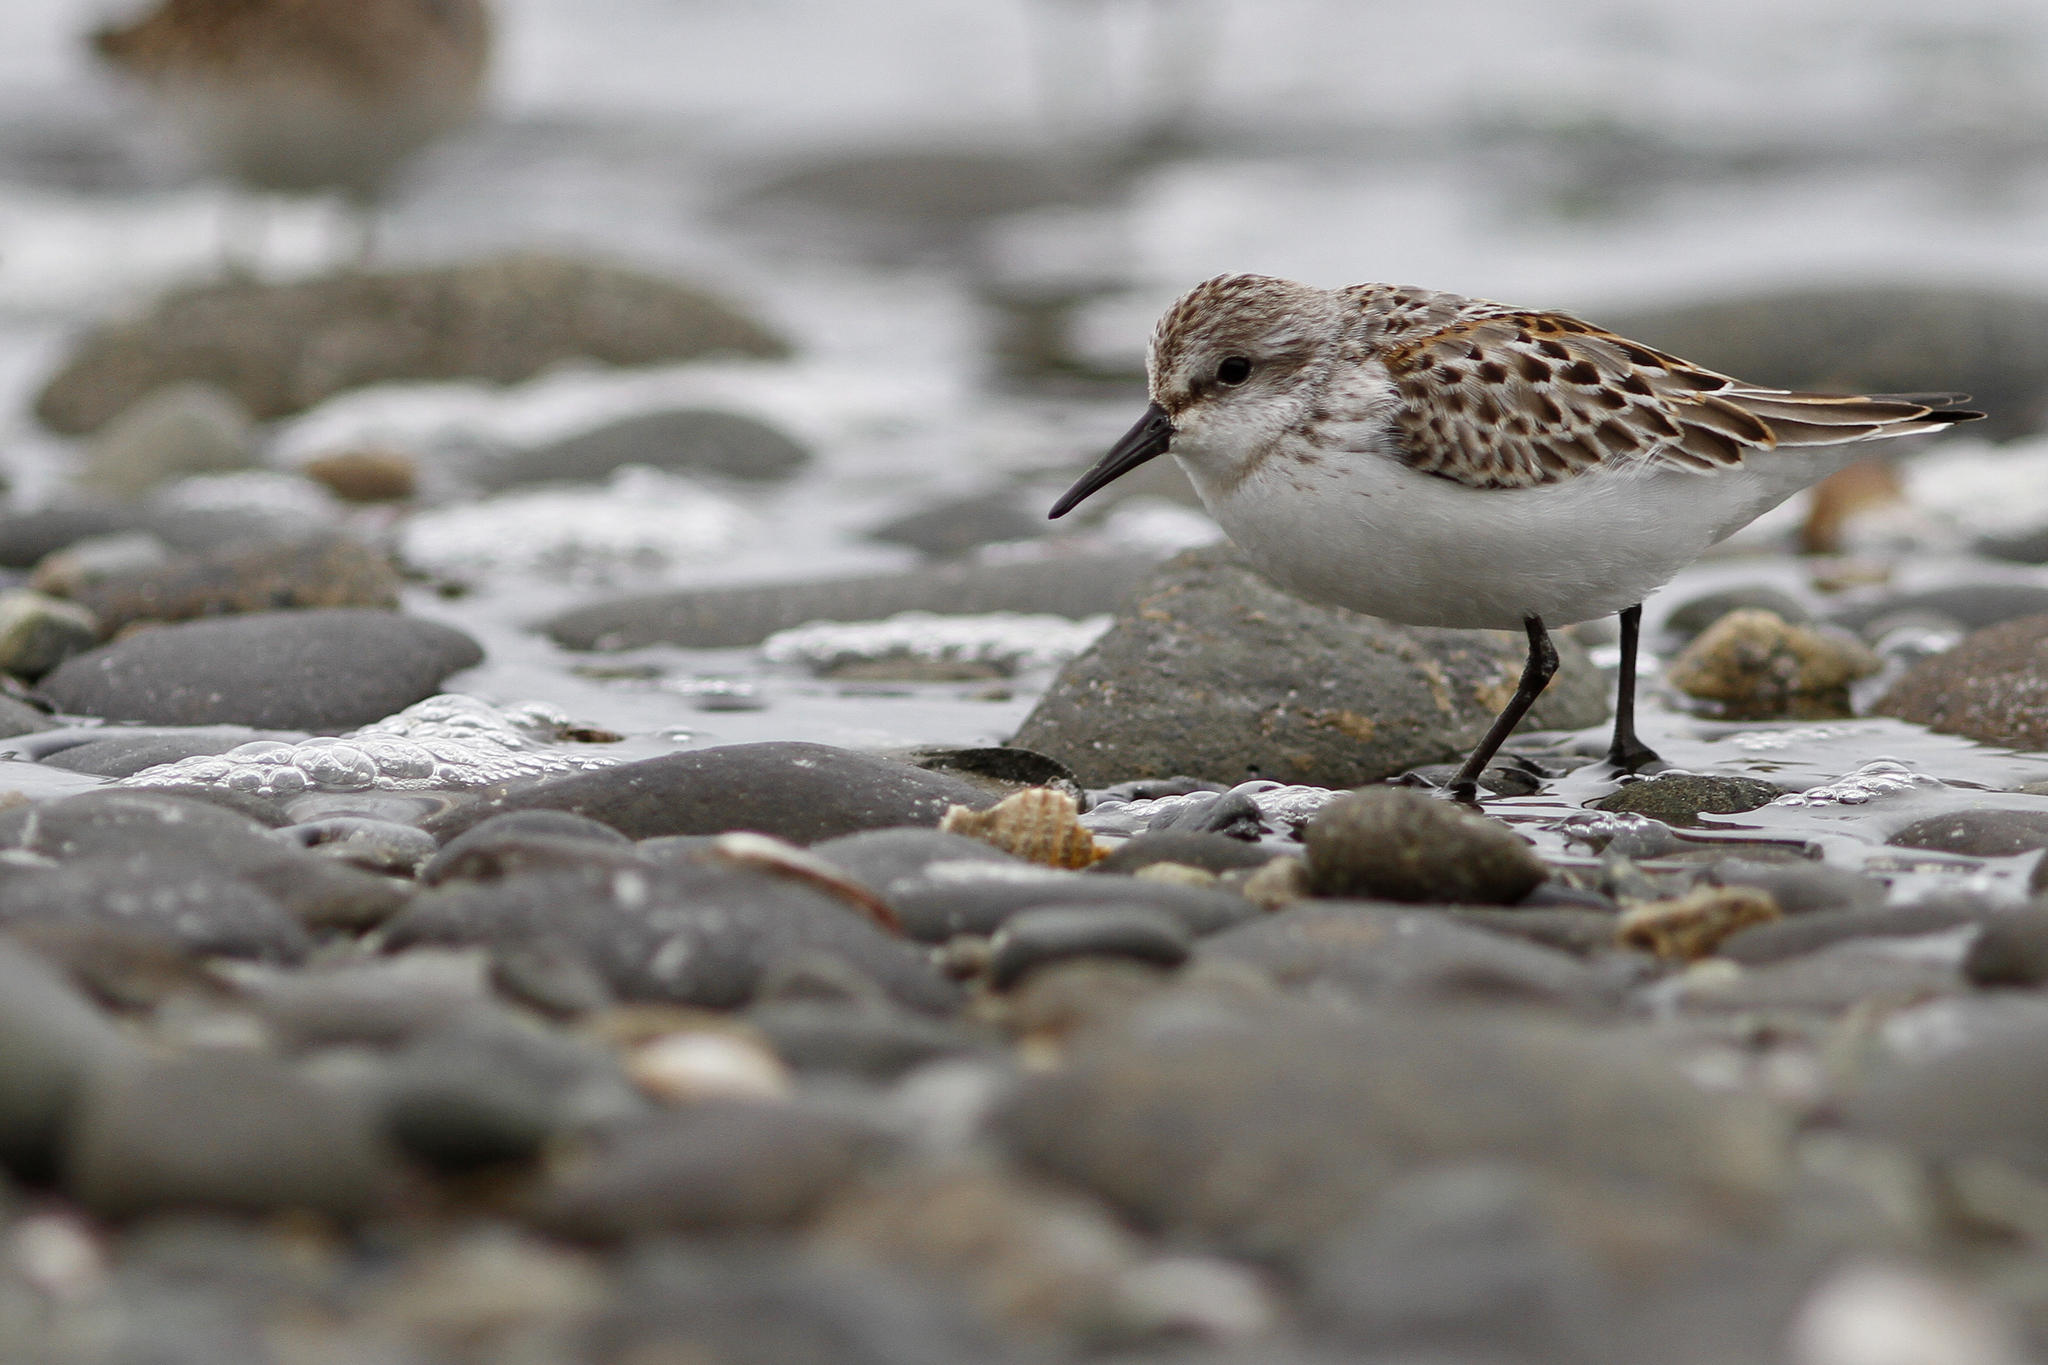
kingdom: Animalia
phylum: Chordata
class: Aves
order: Charadriiformes
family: Scolopacidae
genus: Calidris
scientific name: Calidris mauri
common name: Western sandpiper
